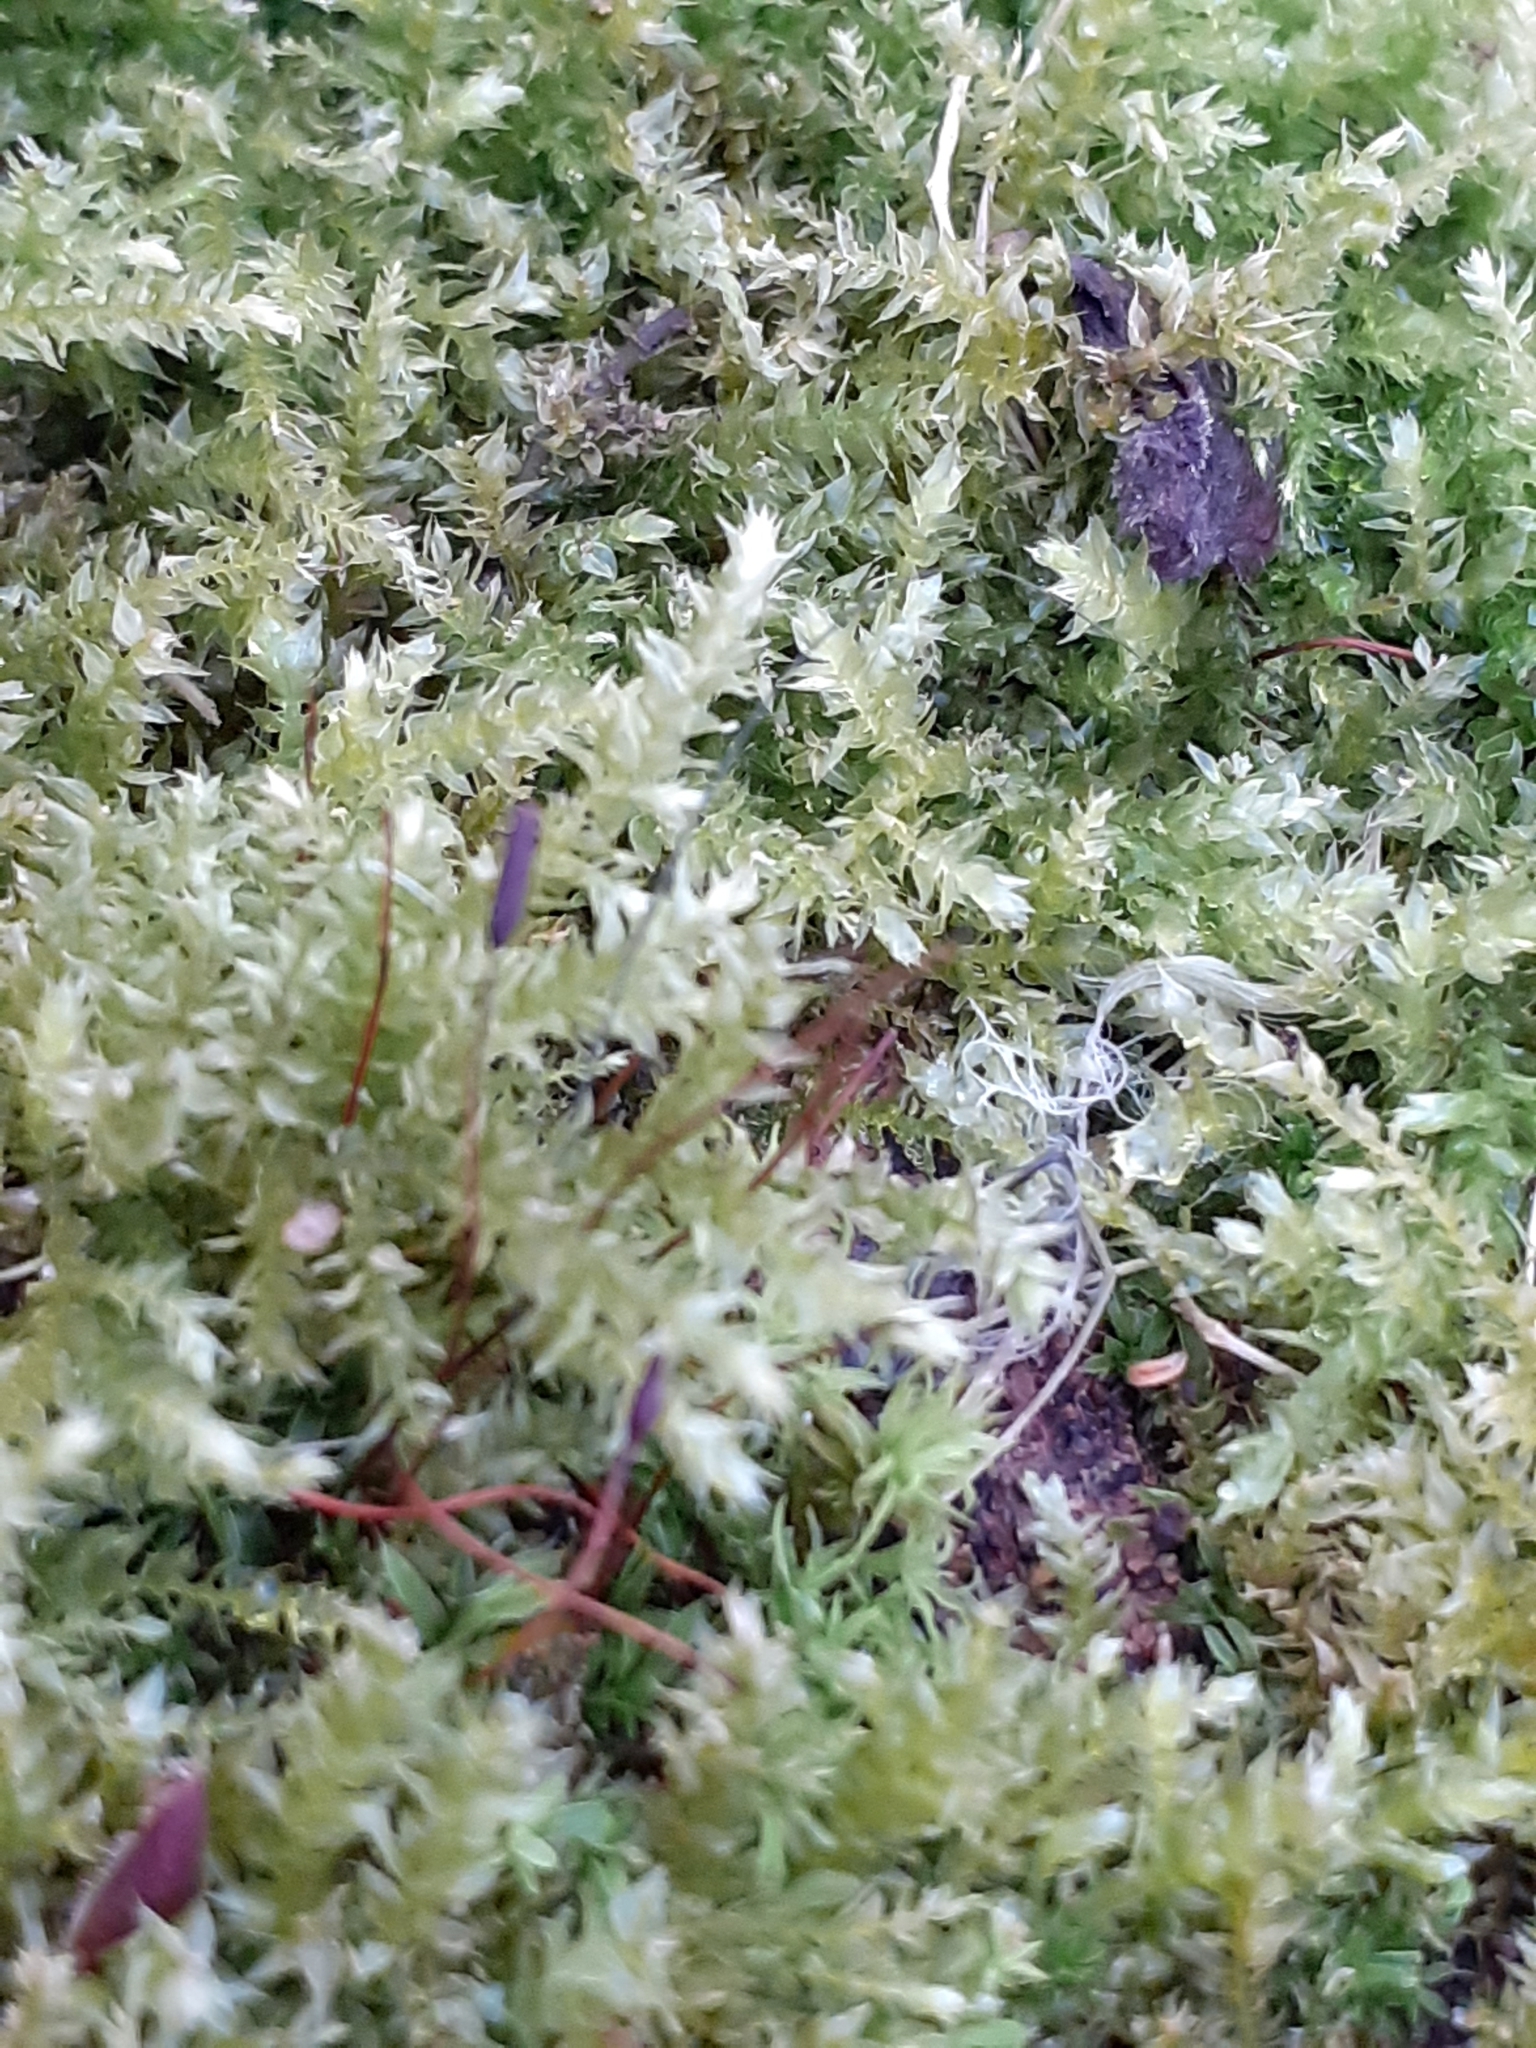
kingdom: Plantae
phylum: Bryophyta
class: Bryopsida
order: Hypnales
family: Brachytheciaceae
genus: Brachythecium
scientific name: Brachythecium rutabulum
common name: Rough-stalked feather-moss
